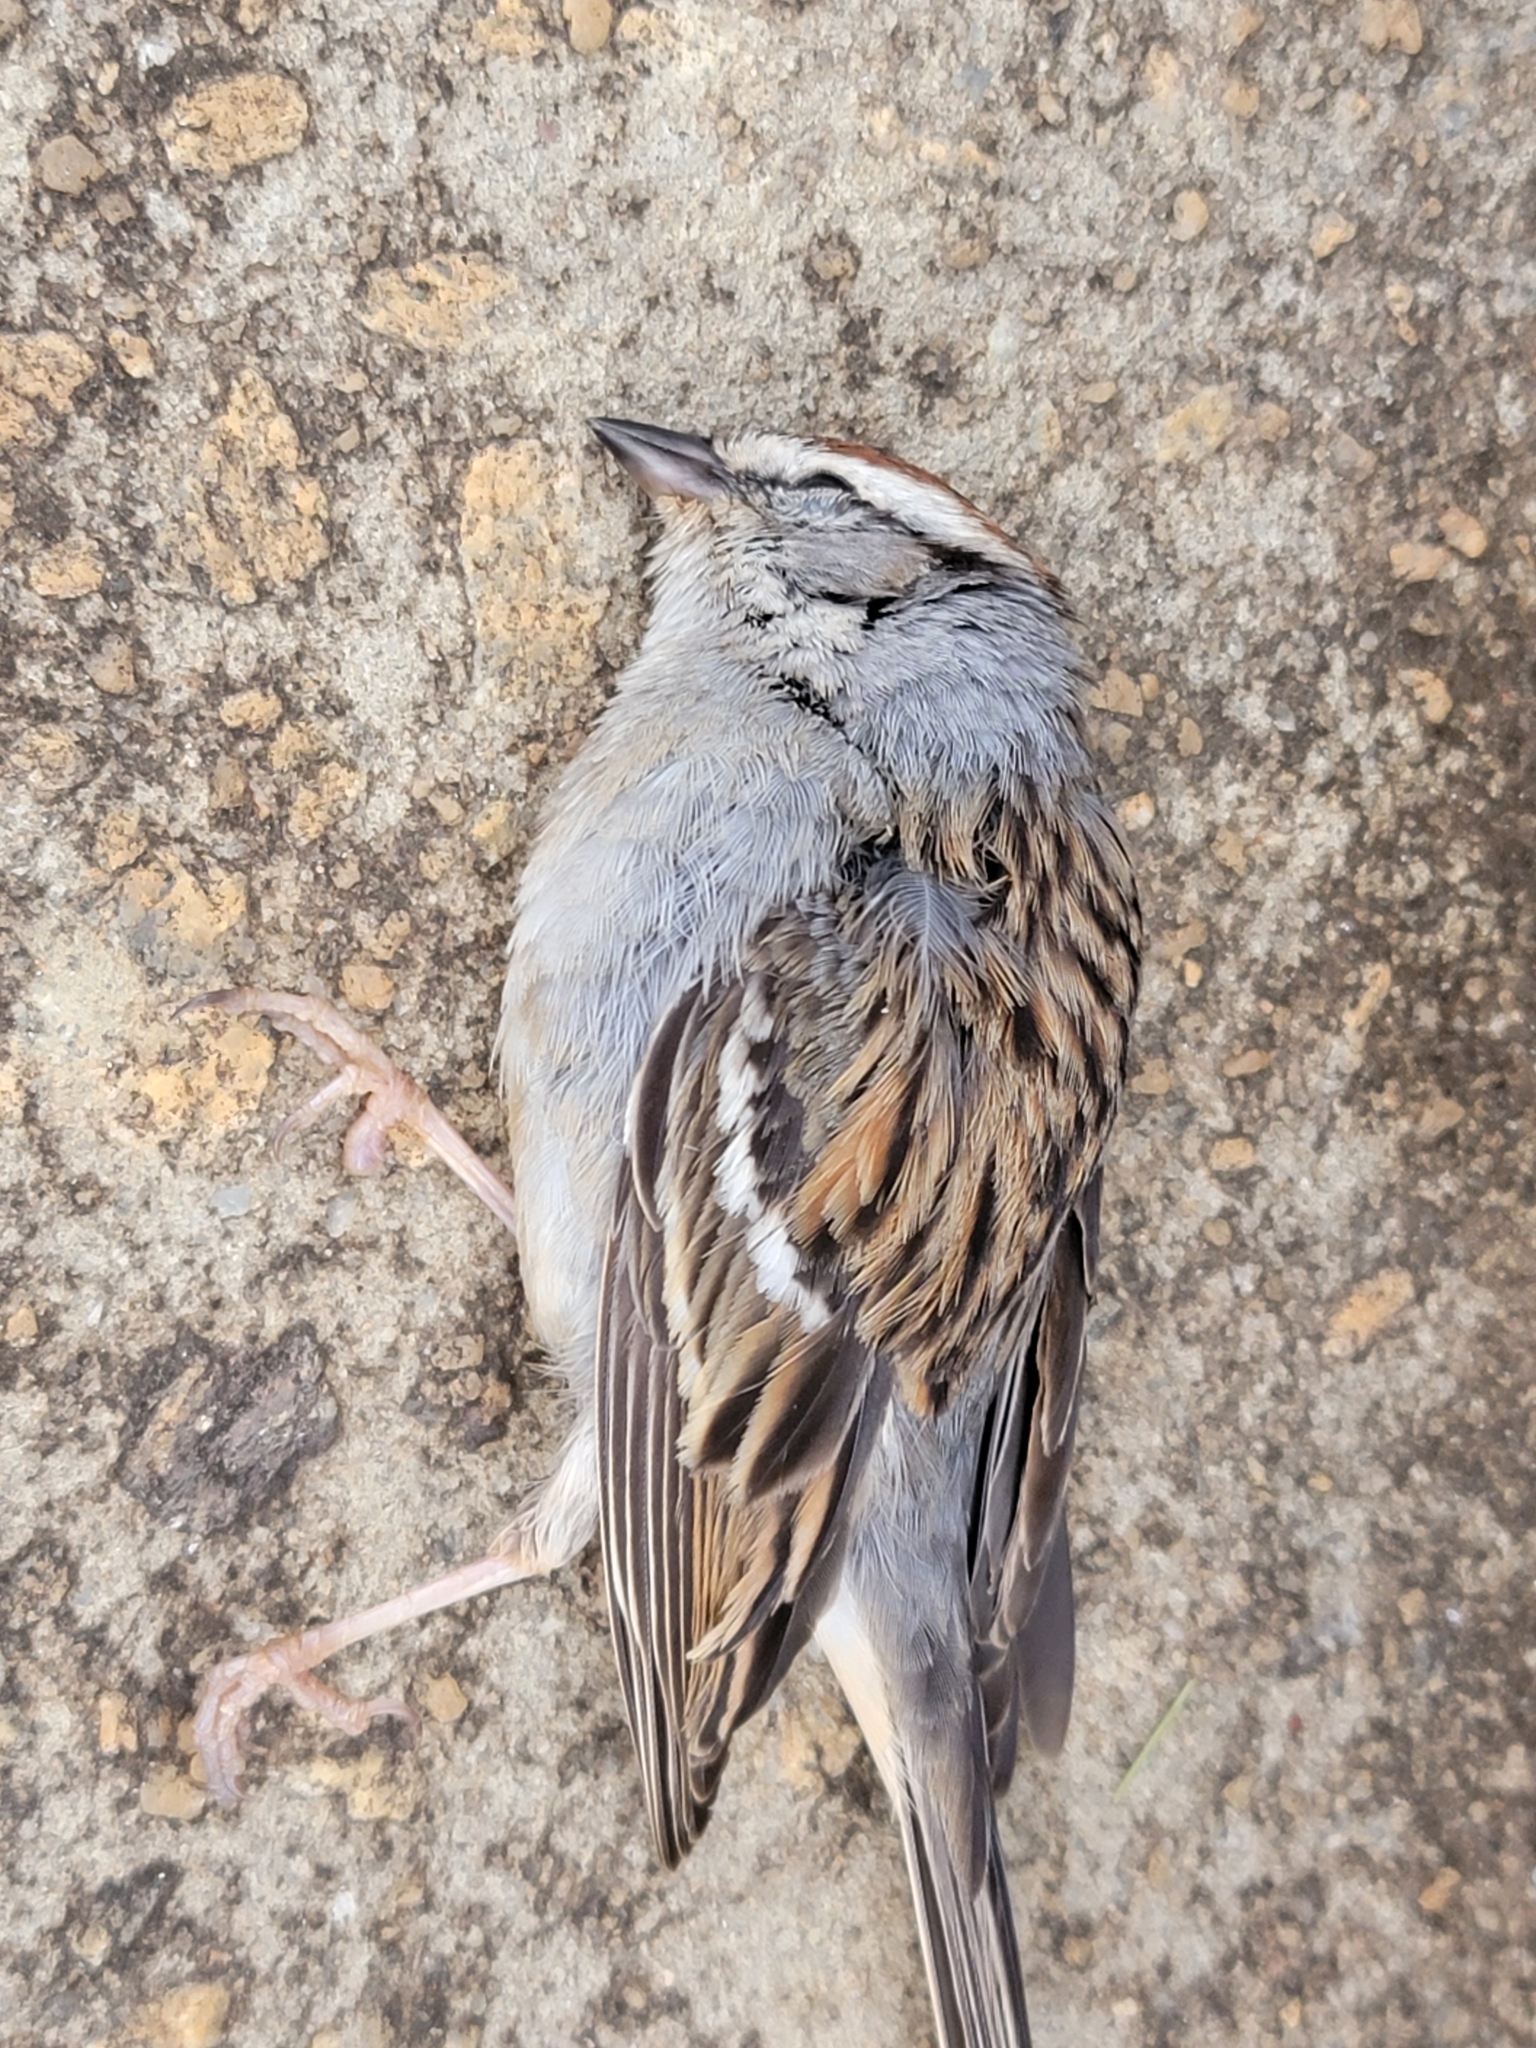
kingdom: Animalia
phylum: Chordata
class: Aves
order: Passeriformes
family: Passerellidae
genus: Spizella
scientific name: Spizella passerina
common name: Chipping sparrow
